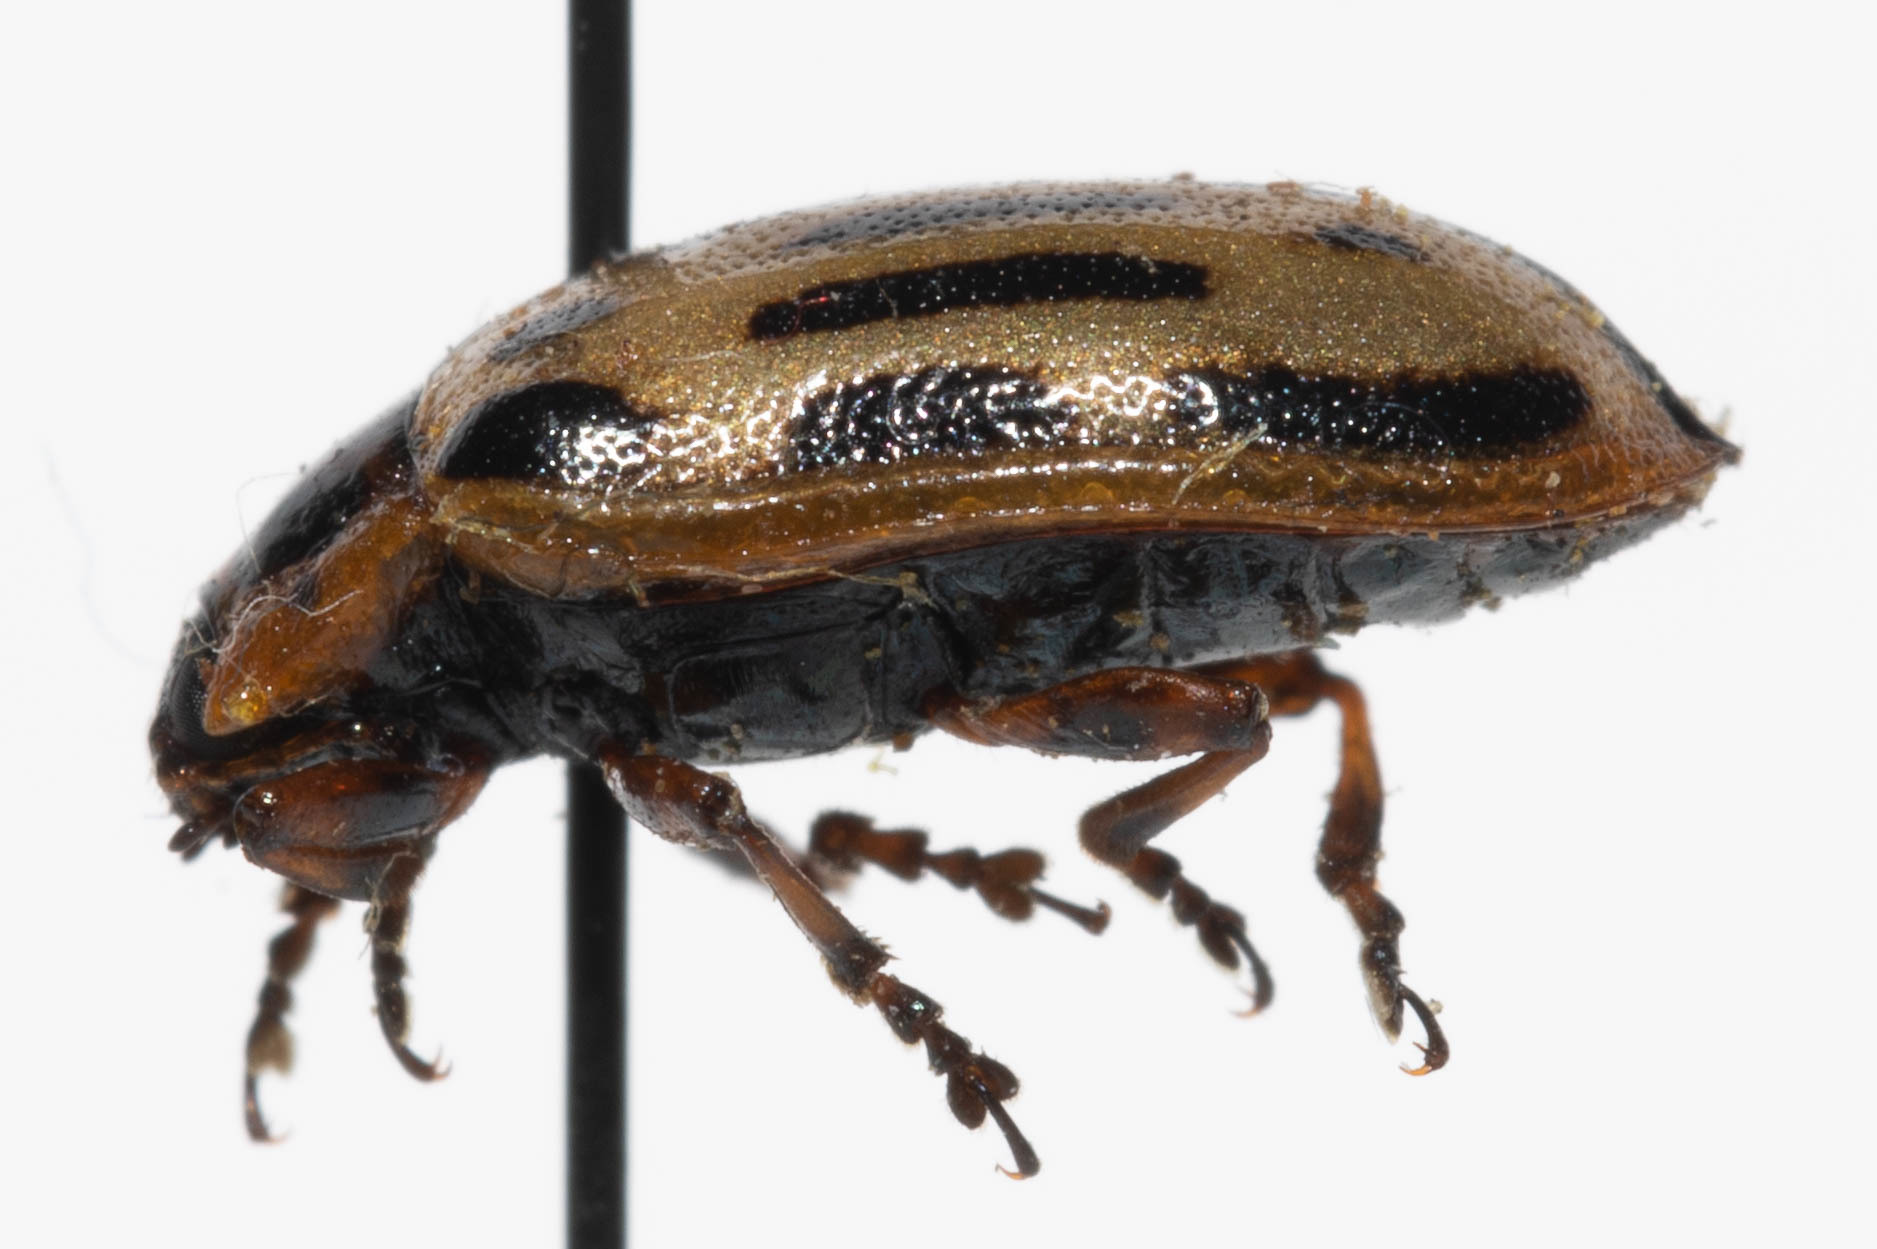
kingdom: Animalia
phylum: Arthropoda
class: Insecta
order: Coleoptera
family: Chrysomelidae
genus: Aethiopocassis
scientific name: Aethiopocassis scripta
